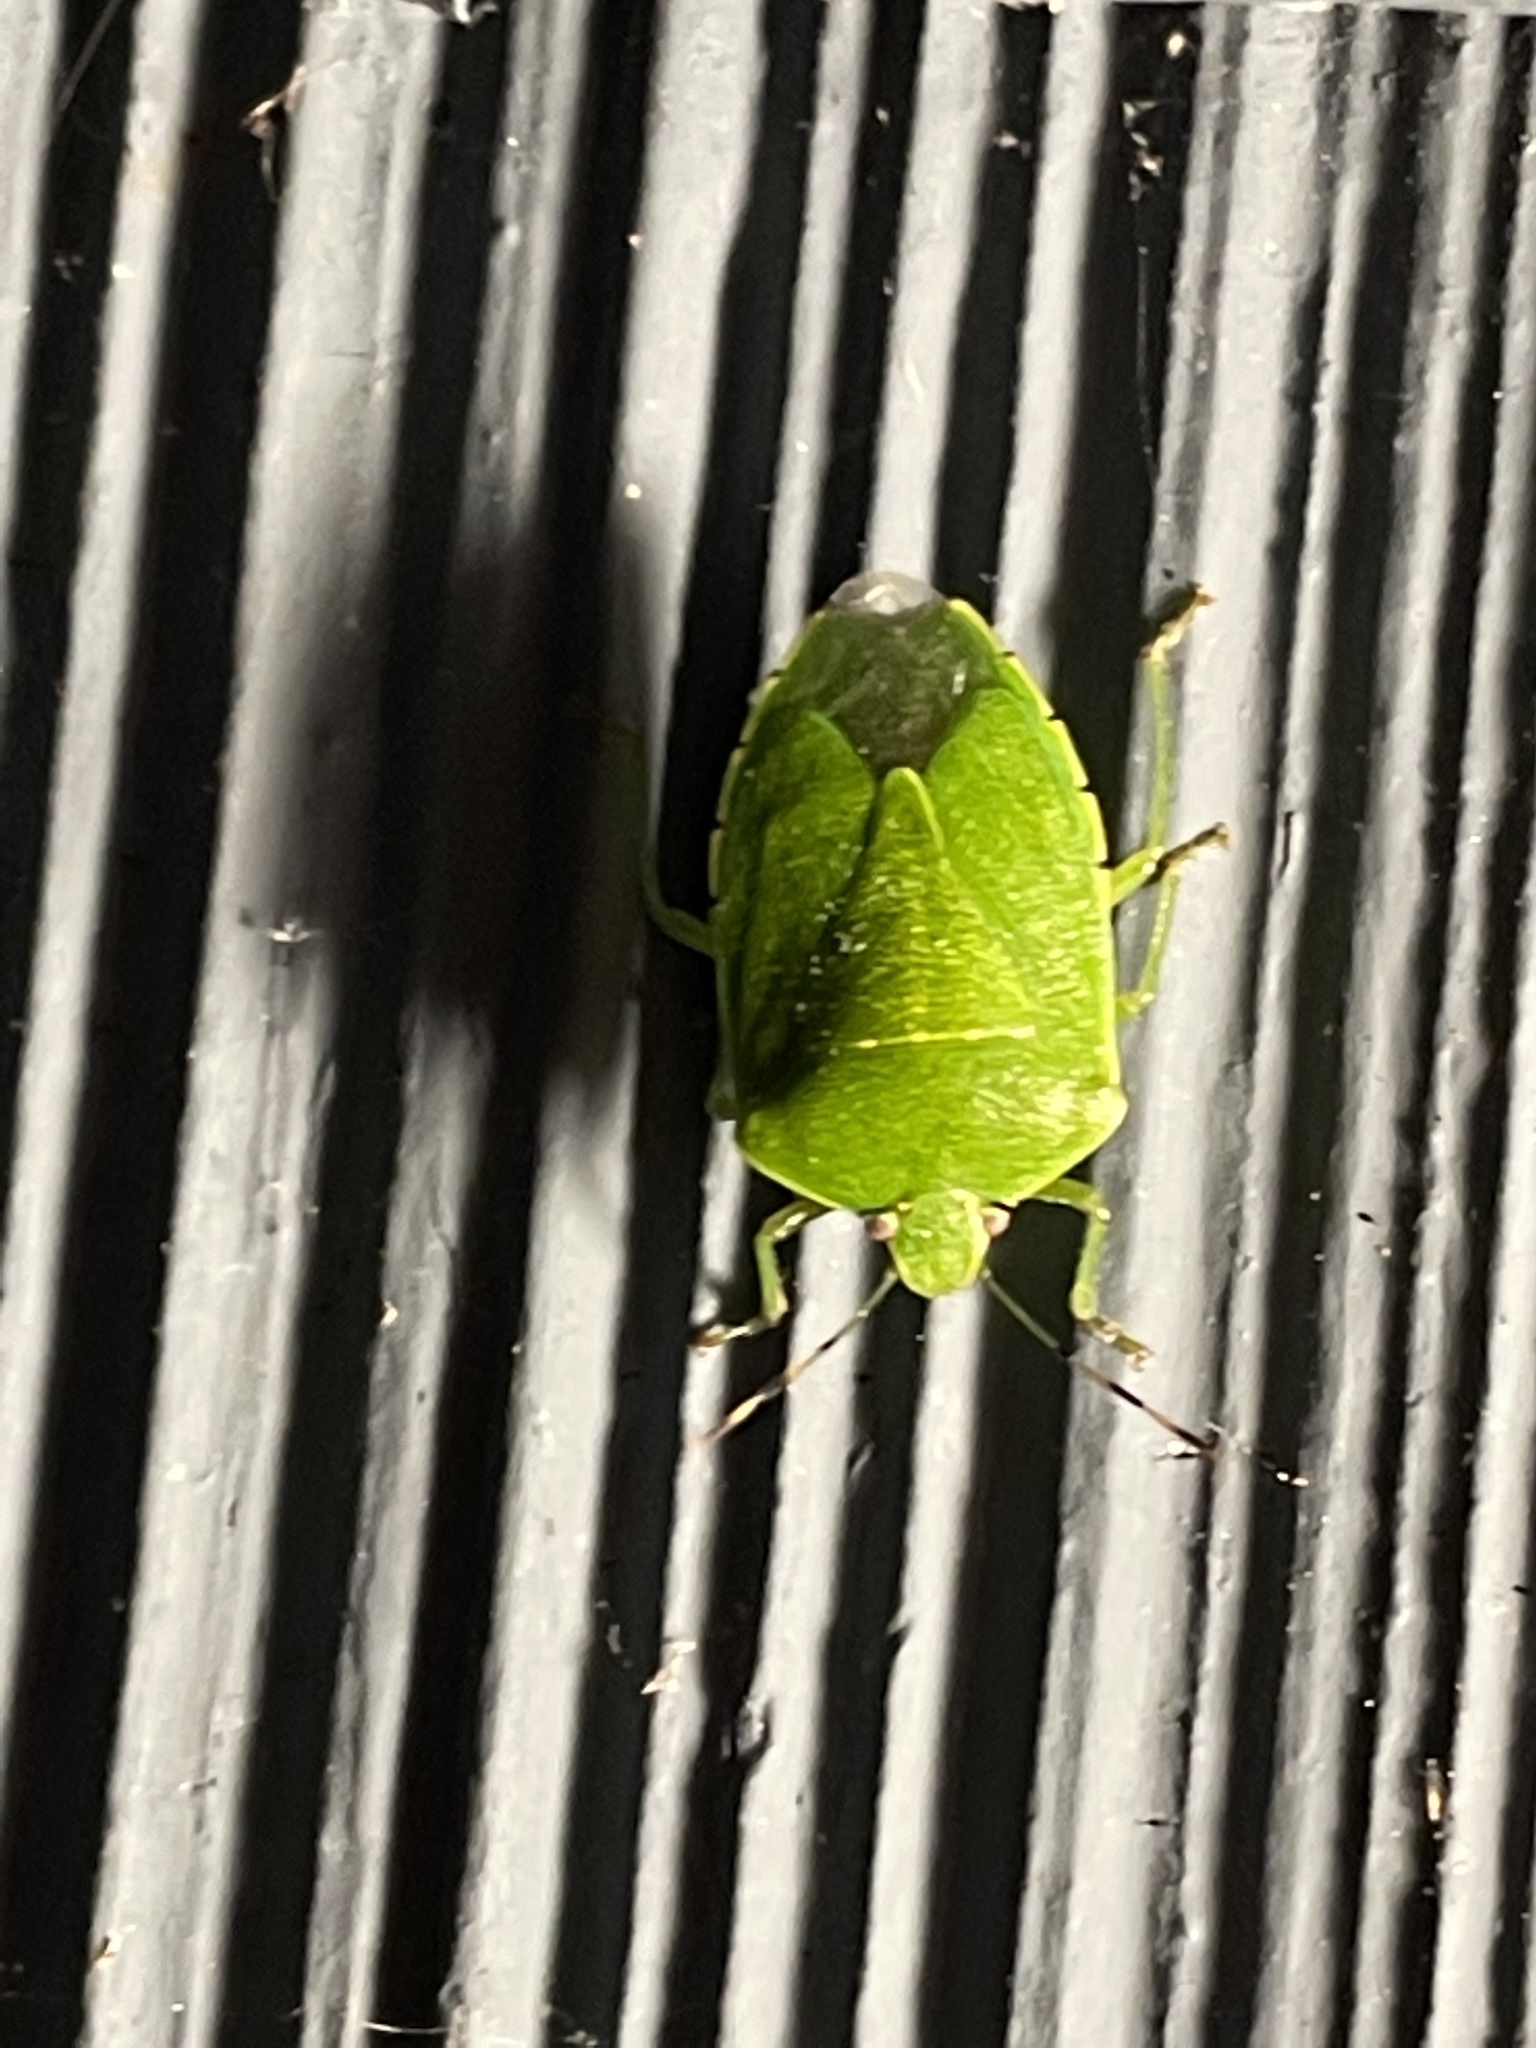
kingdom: Animalia
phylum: Arthropoda
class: Insecta
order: Hemiptera
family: Pentatomidae
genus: Chinavia
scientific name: Chinavia hilaris
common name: Green stink bug
